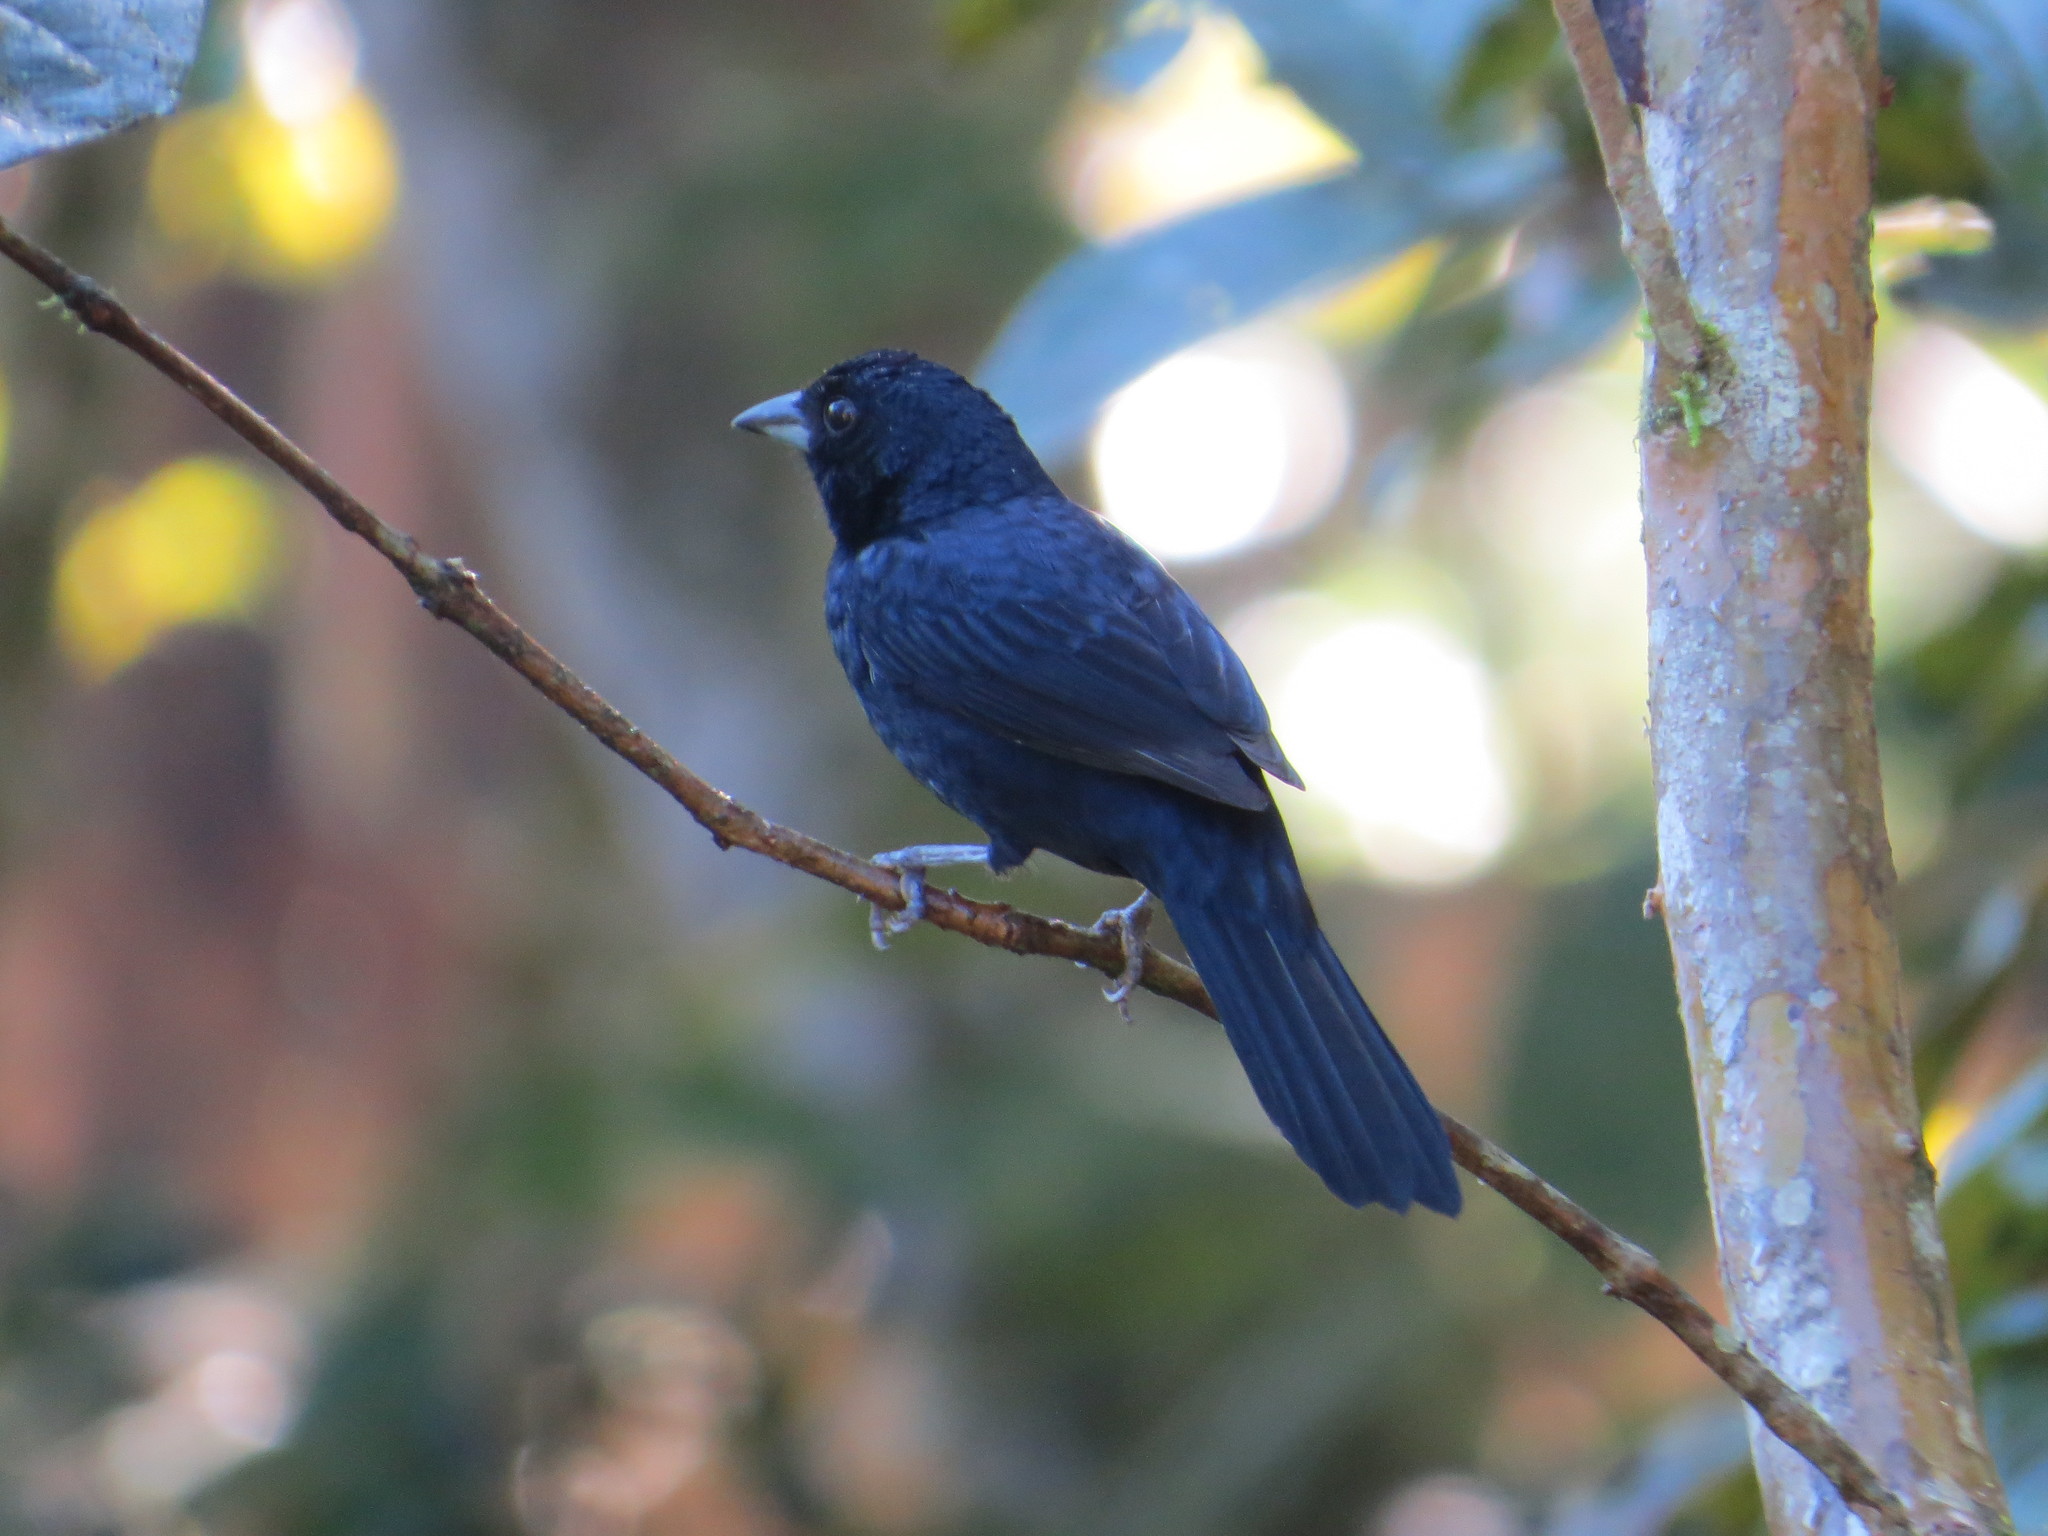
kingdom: Animalia
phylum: Chordata
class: Aves
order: Passeriformes
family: Thraupidae
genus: Tachyphonus
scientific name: Tachyphonus coronatus
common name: Ruby-crowned tanager
